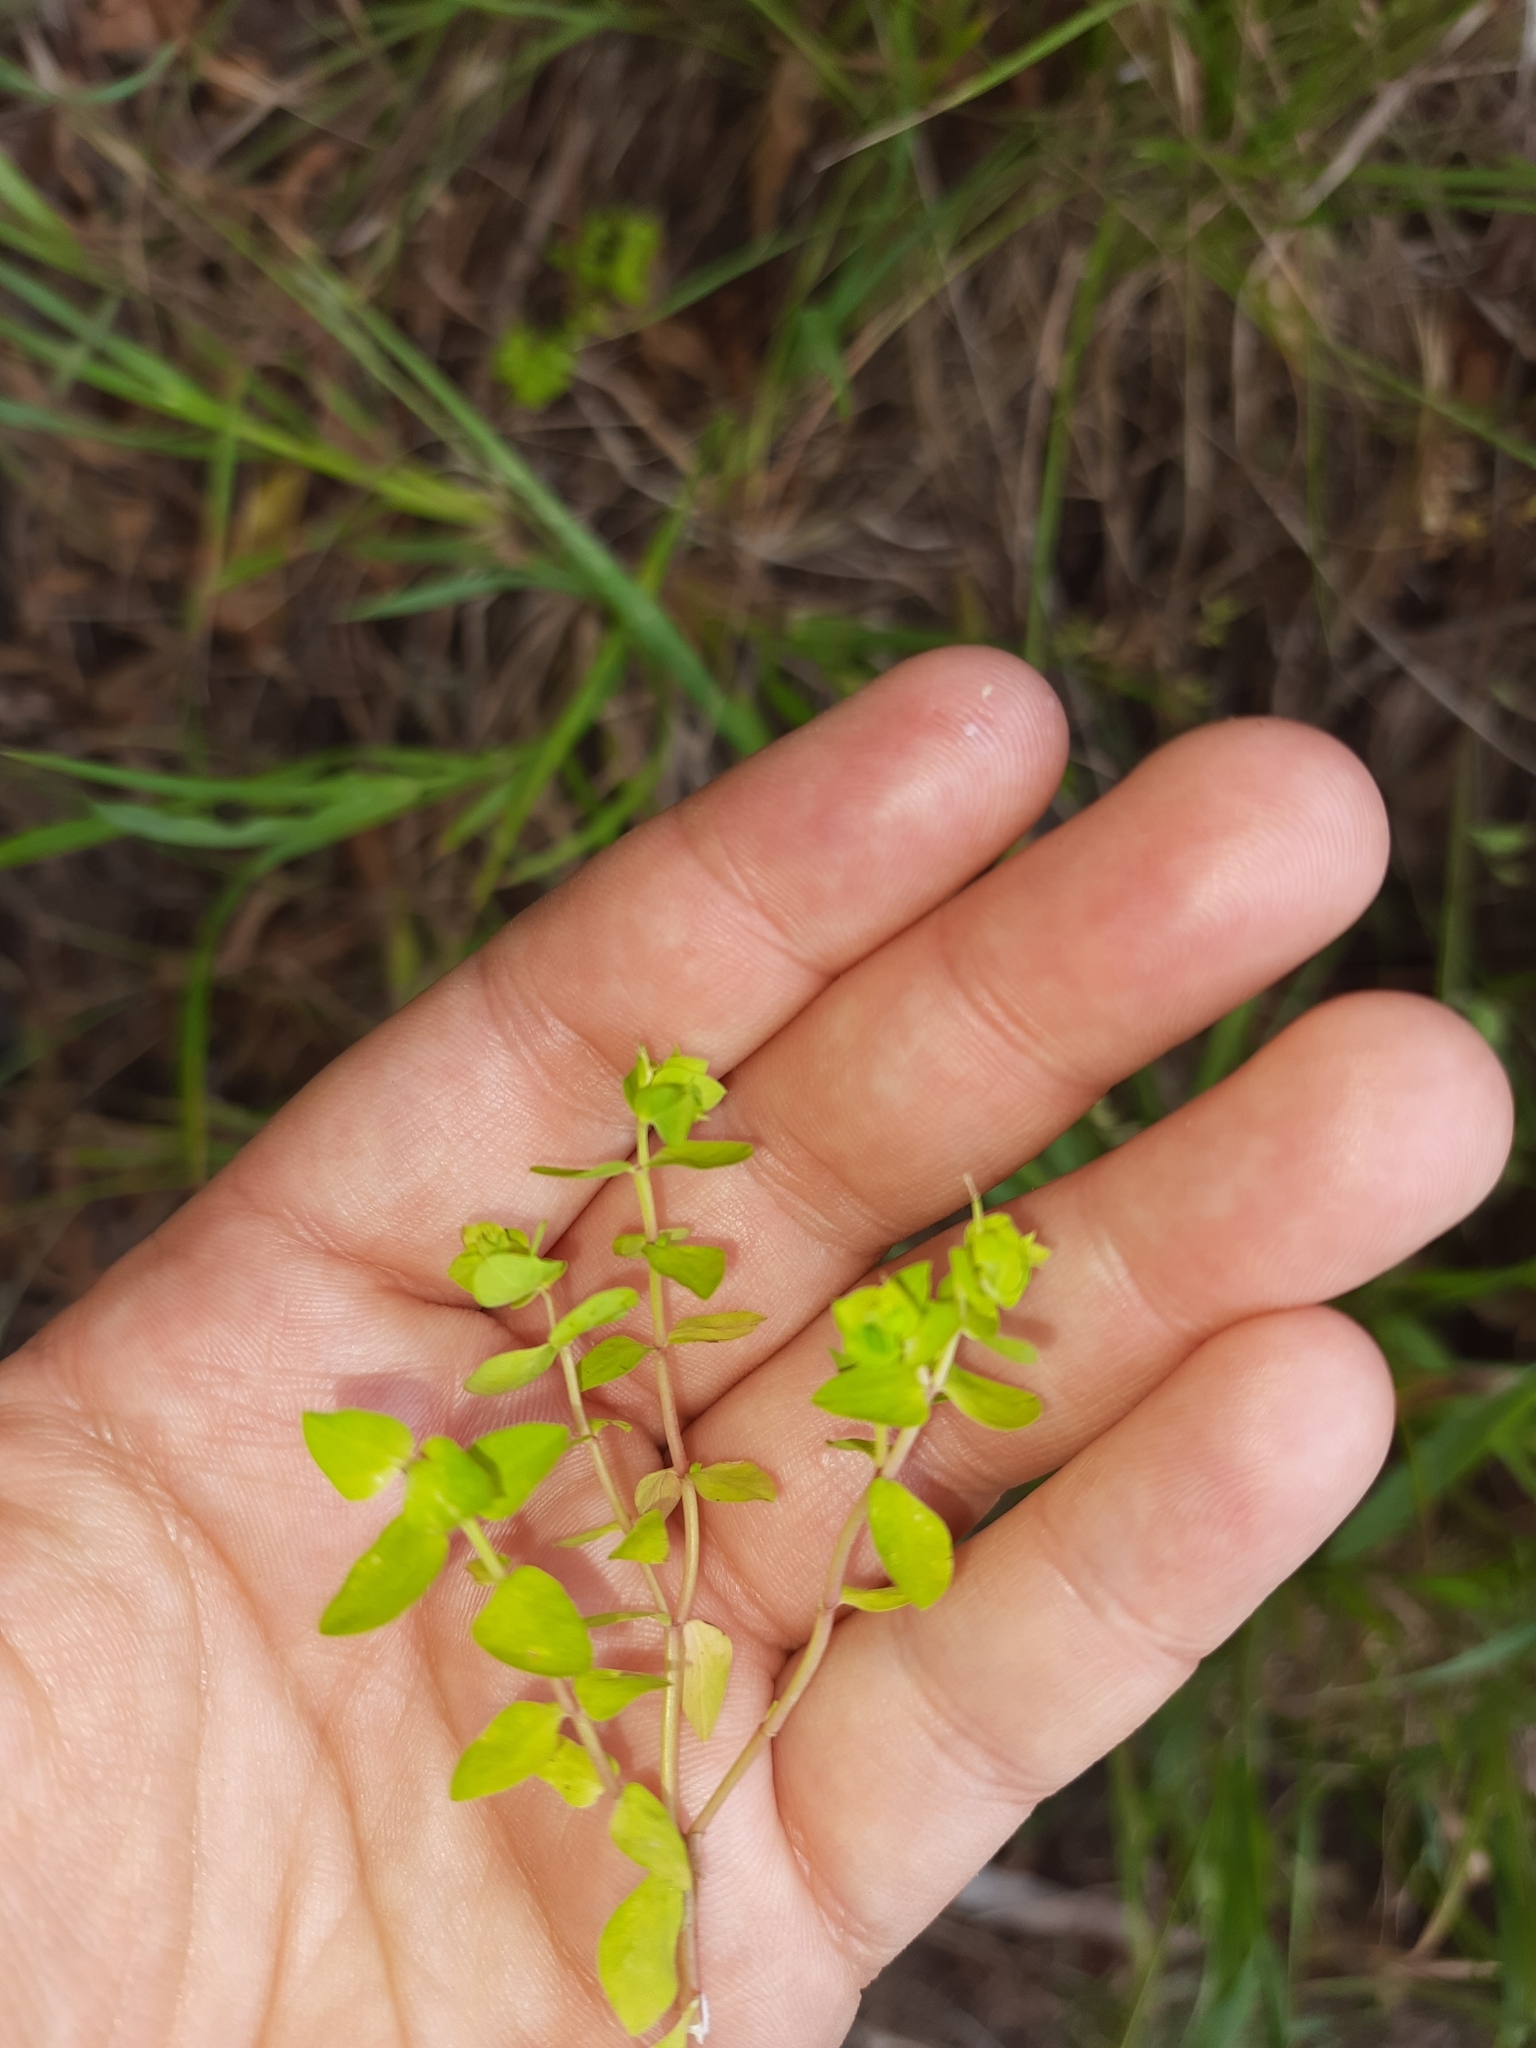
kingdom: Plantae
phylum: Tracheophyta
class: Magnoliopsida
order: Malpighiales
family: Euphorbiaceae
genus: Euphorbia
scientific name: Euphorbia peplus
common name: Petty spurge
